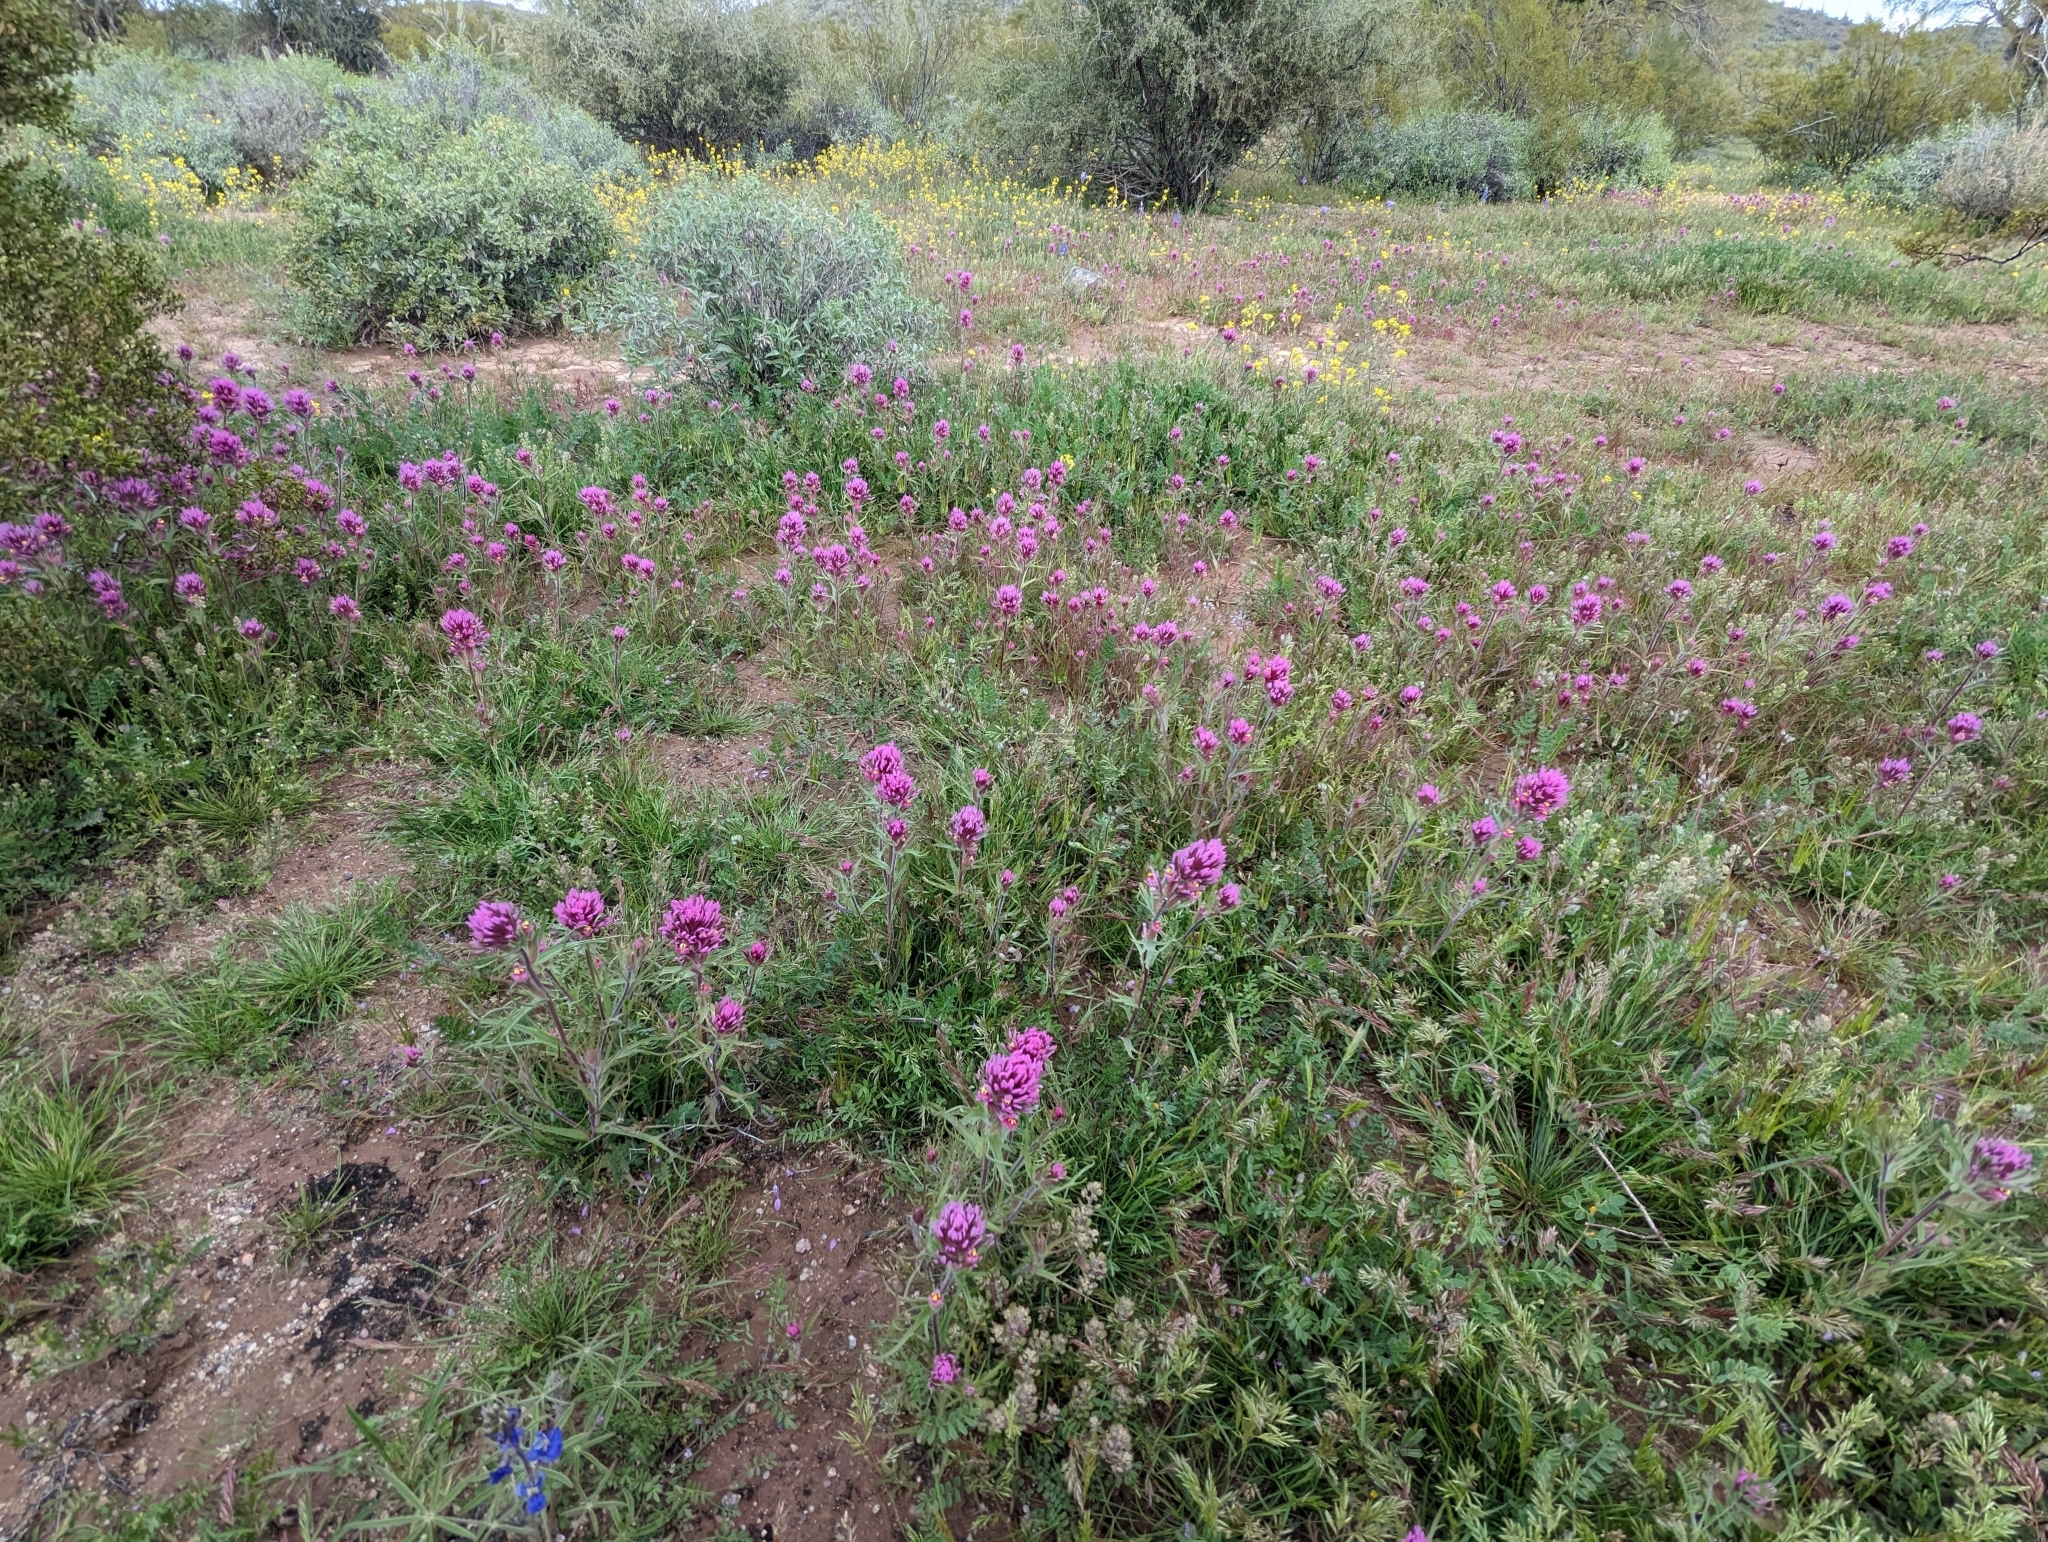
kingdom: Plantae
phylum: Tracheophyta
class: Magnoliopsida
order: Lamiales
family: Orobanchaceae
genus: Castilleja
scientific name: Castilleja exserta
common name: Purple owl-clover
